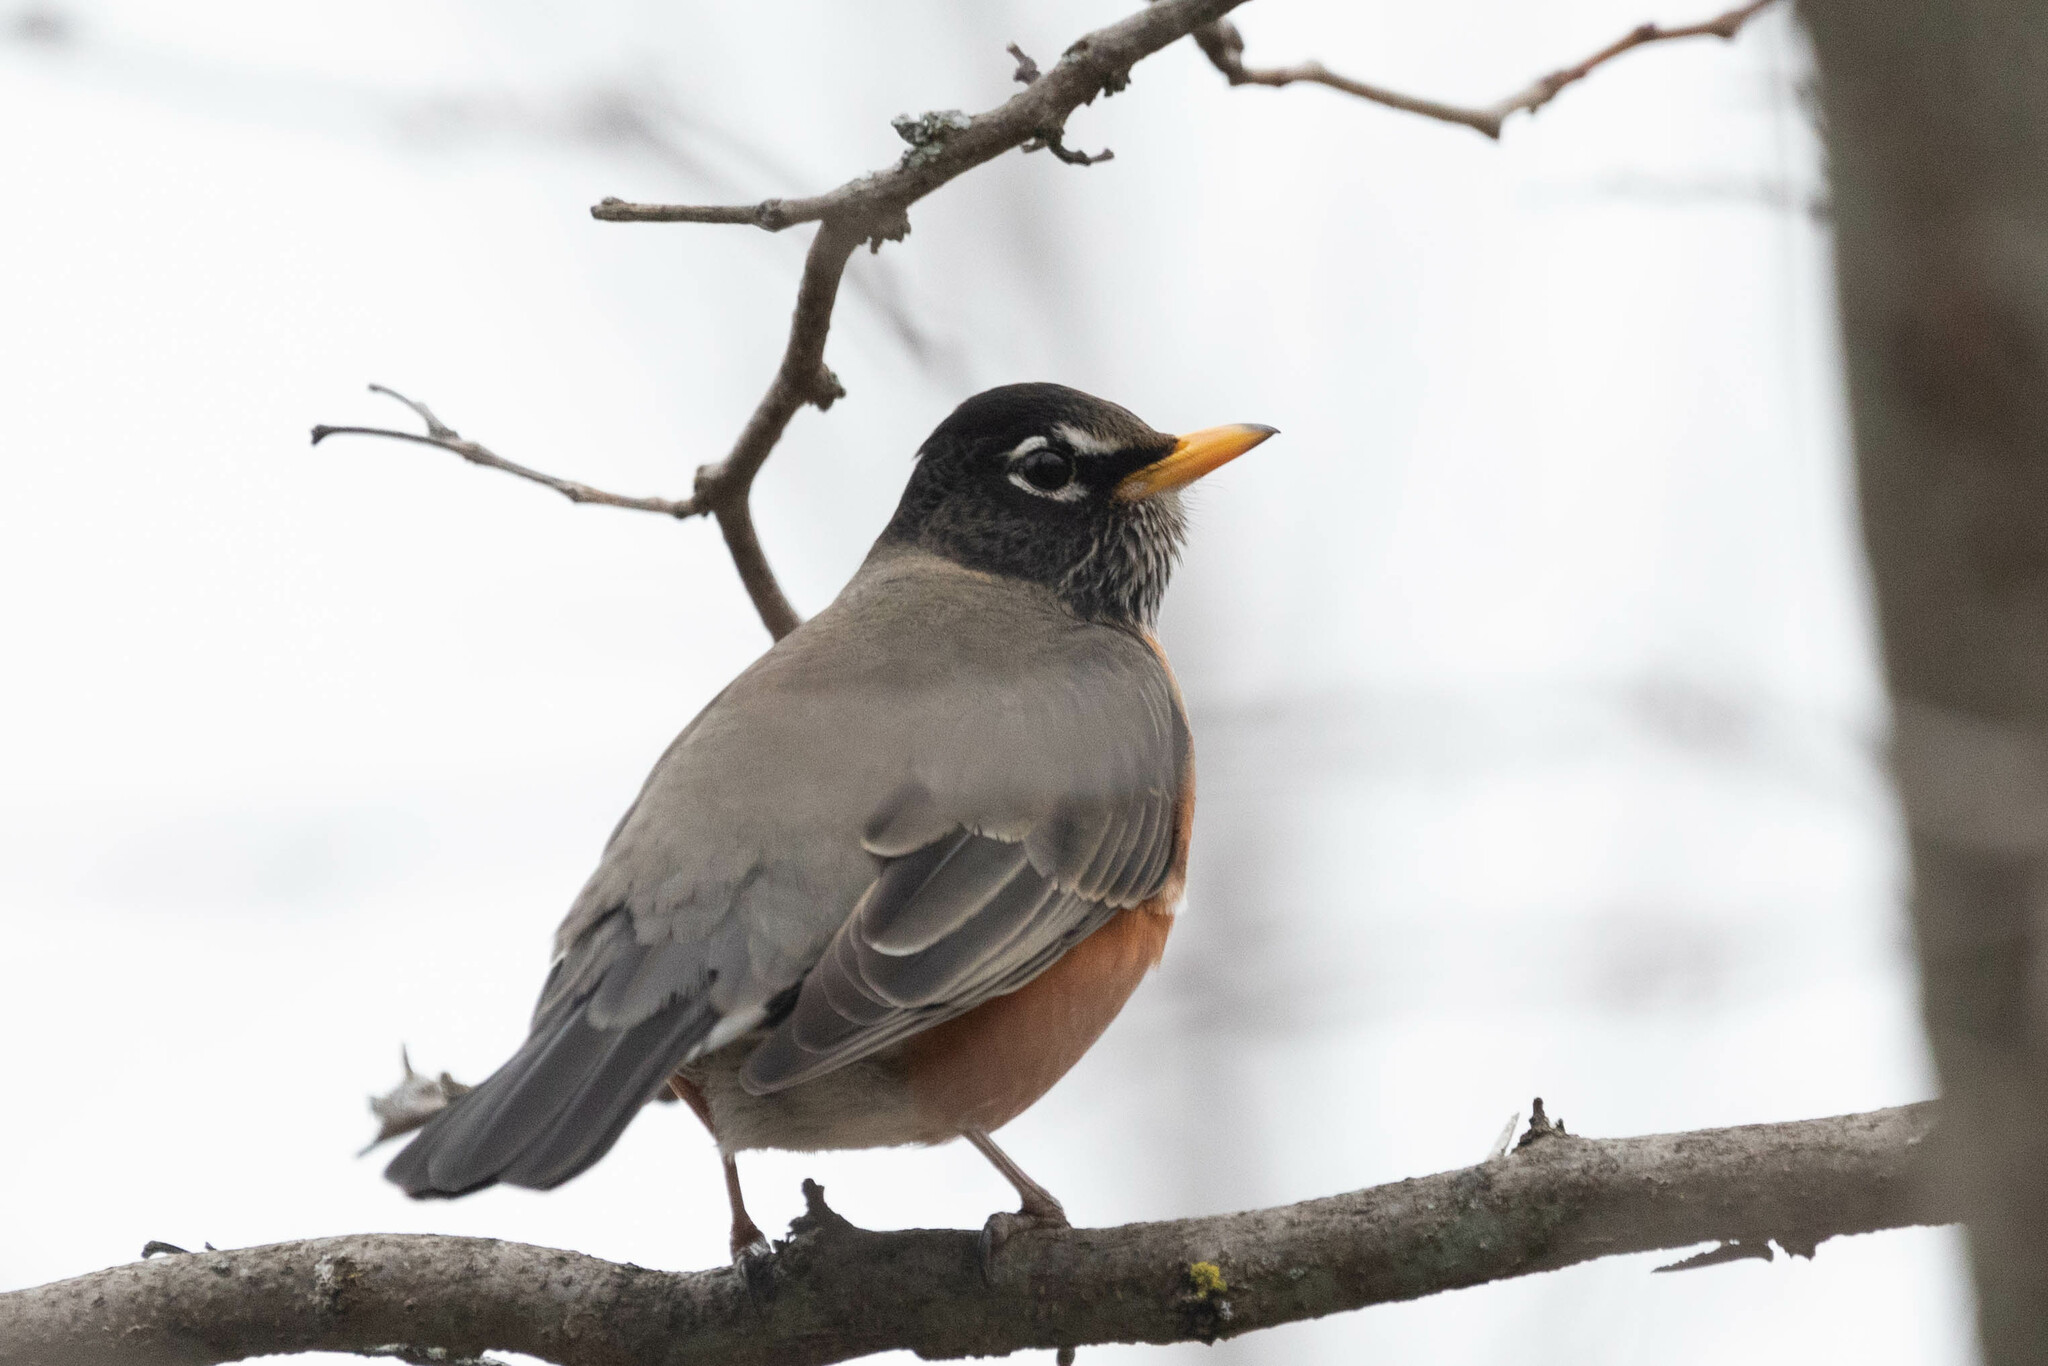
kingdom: Animalia
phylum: Chordata
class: Aves
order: Passeriformes
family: Turdidae
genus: Turdus
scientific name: Turdus migratorius
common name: American robin
